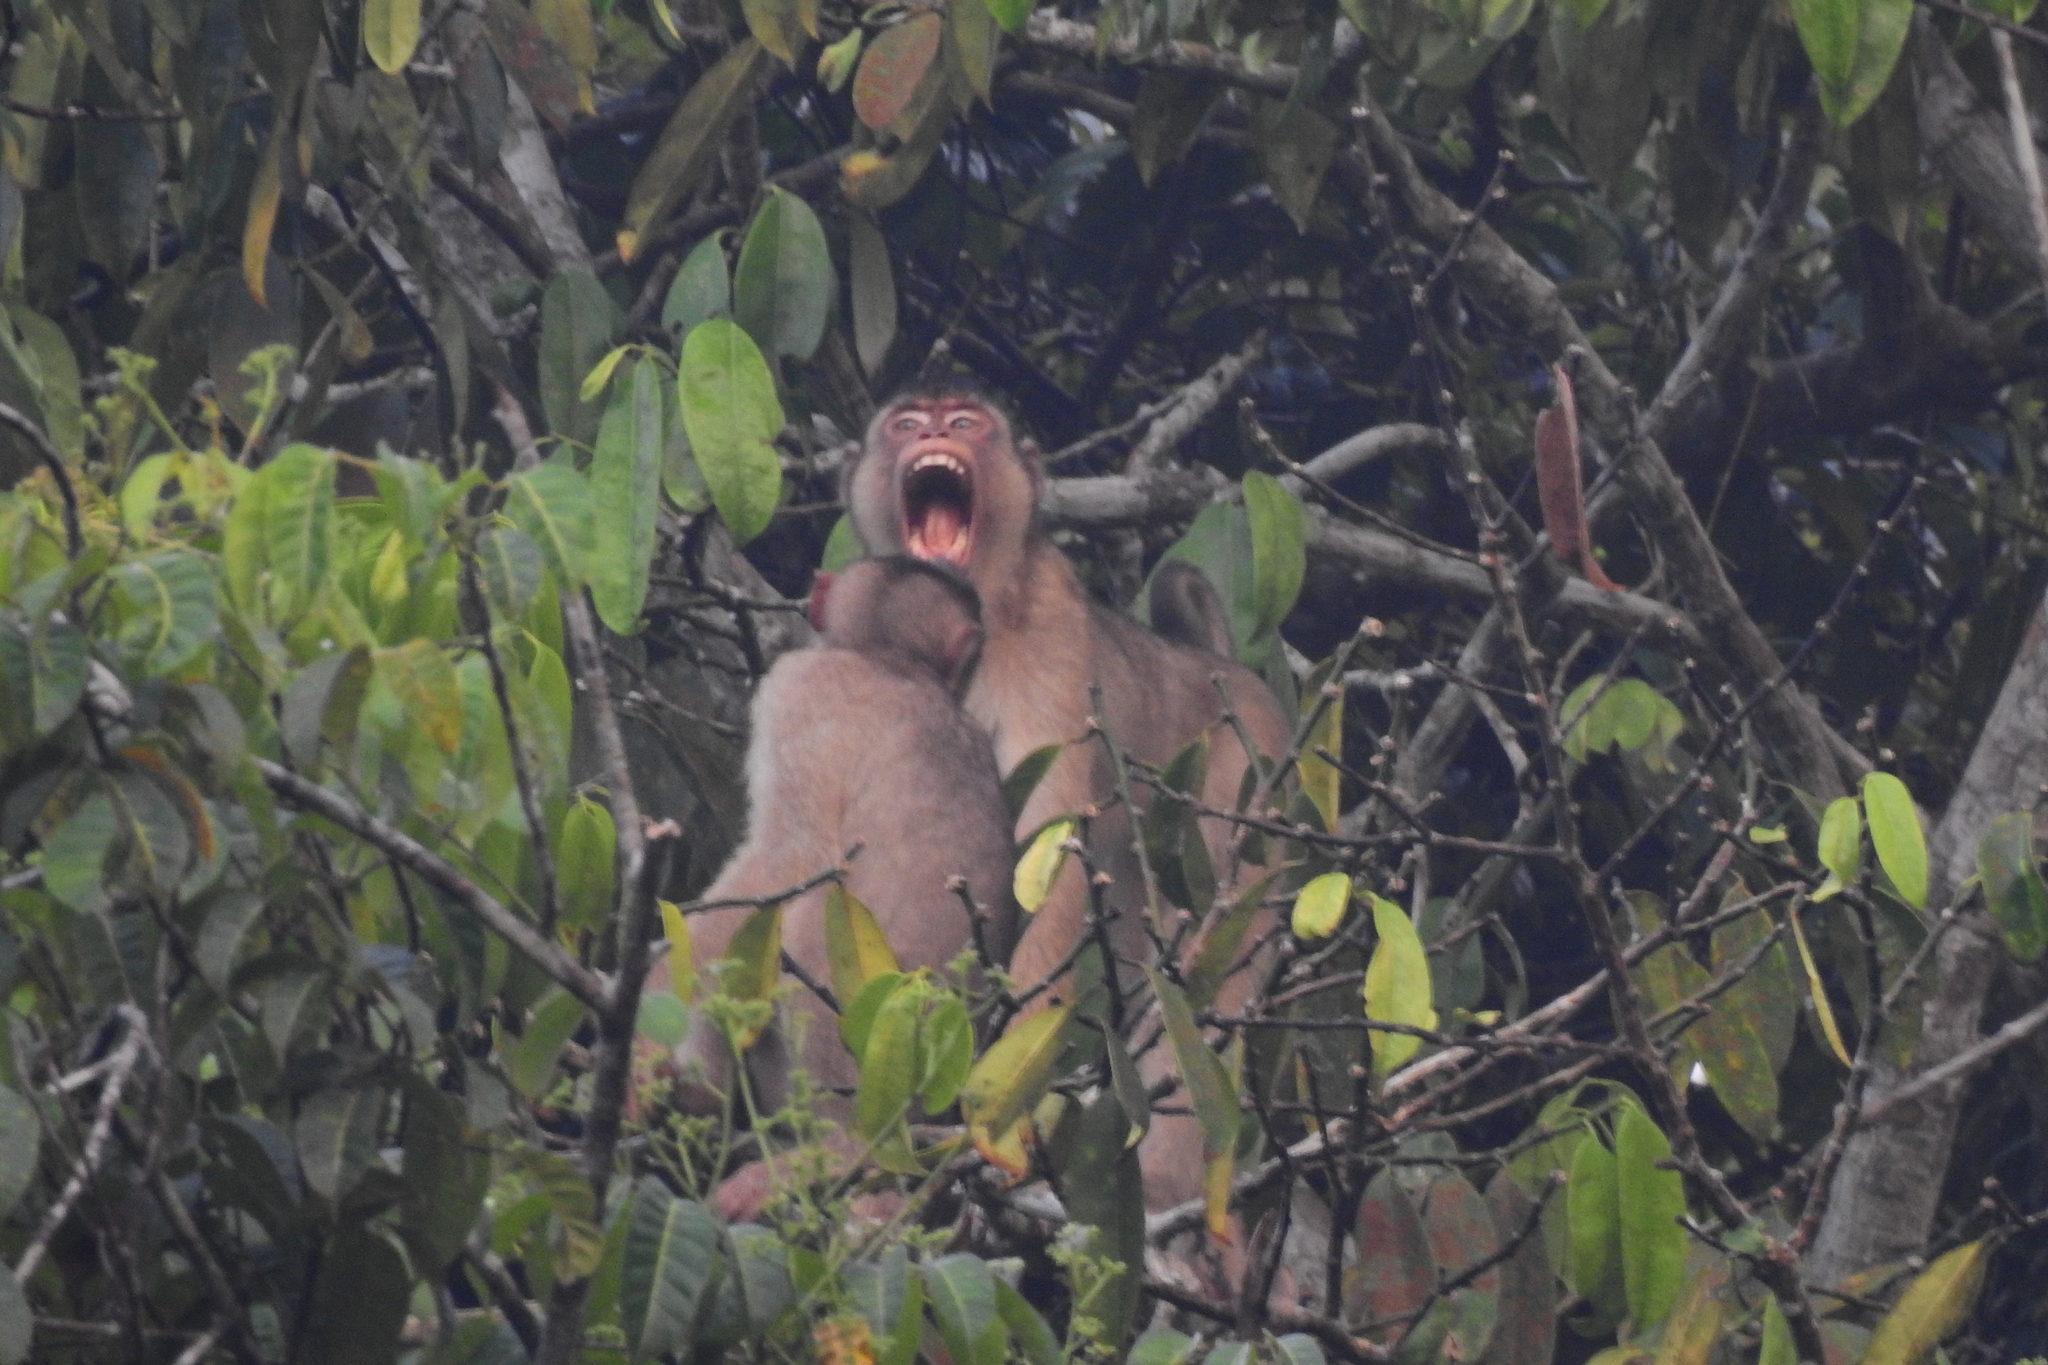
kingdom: Animalia
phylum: Chordata
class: Mammalia
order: Primates
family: Cercopithecidae
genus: Macaca
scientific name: Macaca nemestrina
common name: Southern pig-tailed macaque
